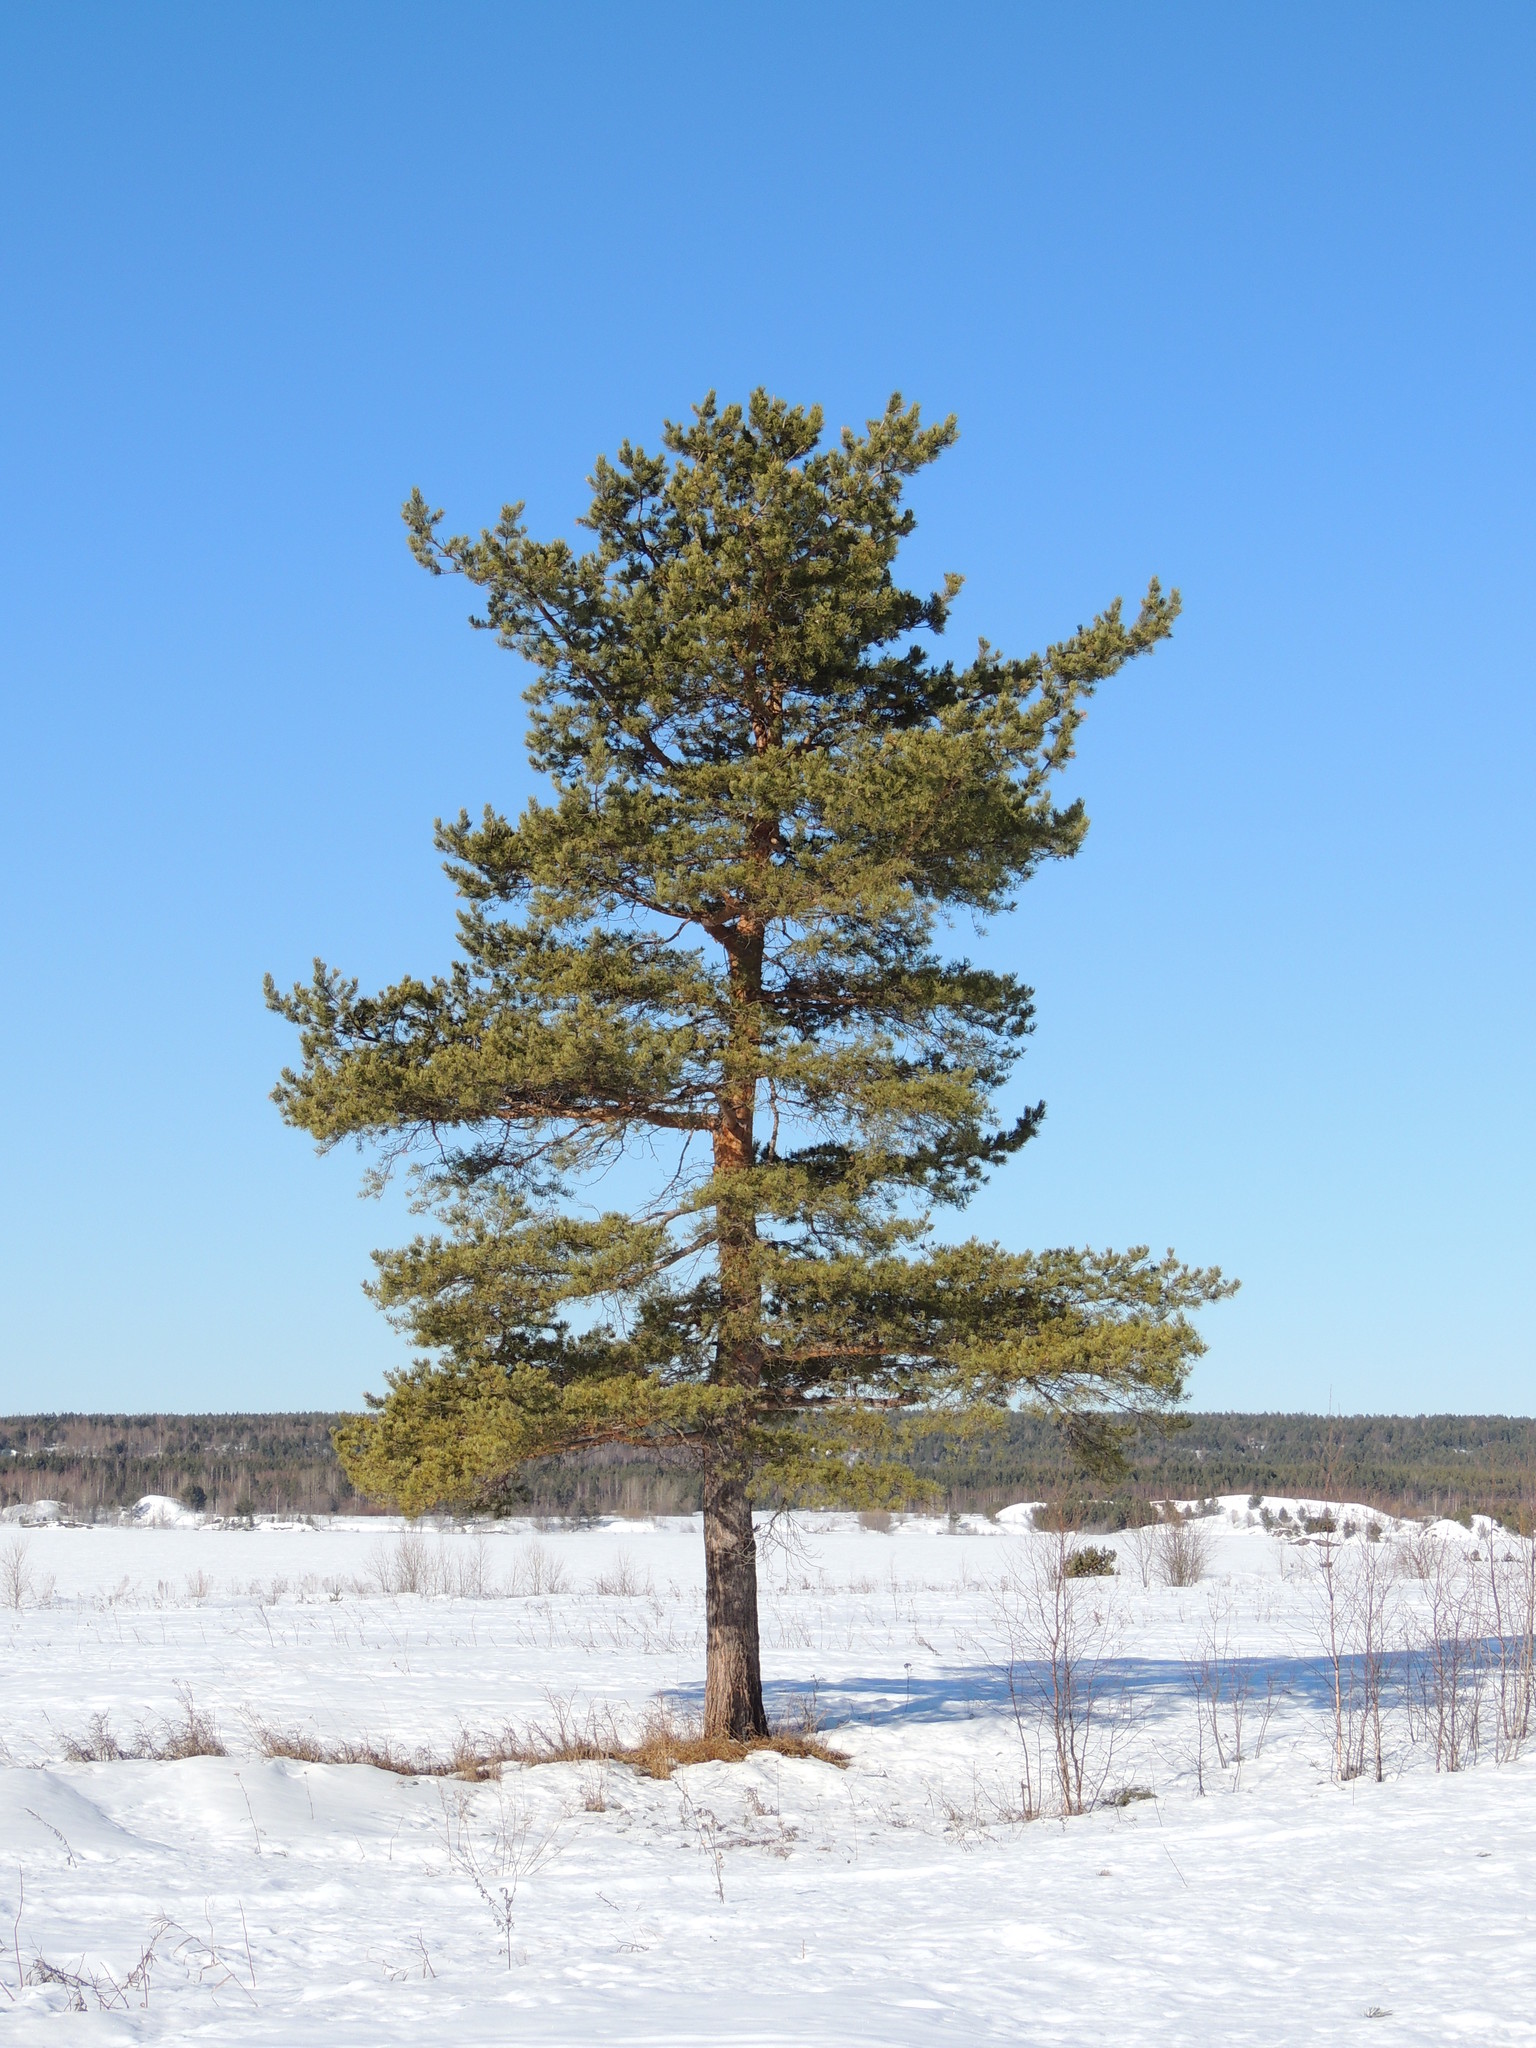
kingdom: Plantae
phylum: Tracheophyta
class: Pinopsida
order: Pinales
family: Pinaceae
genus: Pinus
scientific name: Pinus sylvestris
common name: Scots pine
